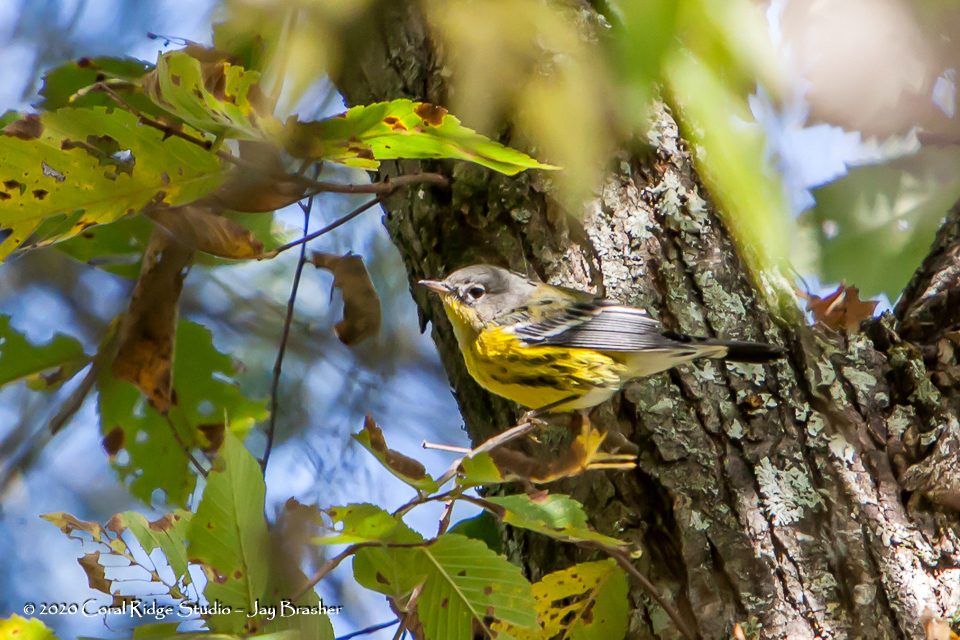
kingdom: Animalia
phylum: Chordata
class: Aves
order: Passeriformes
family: Parulidae
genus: Setophaga
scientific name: Setophaga magnolia
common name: Magnolia warbler
